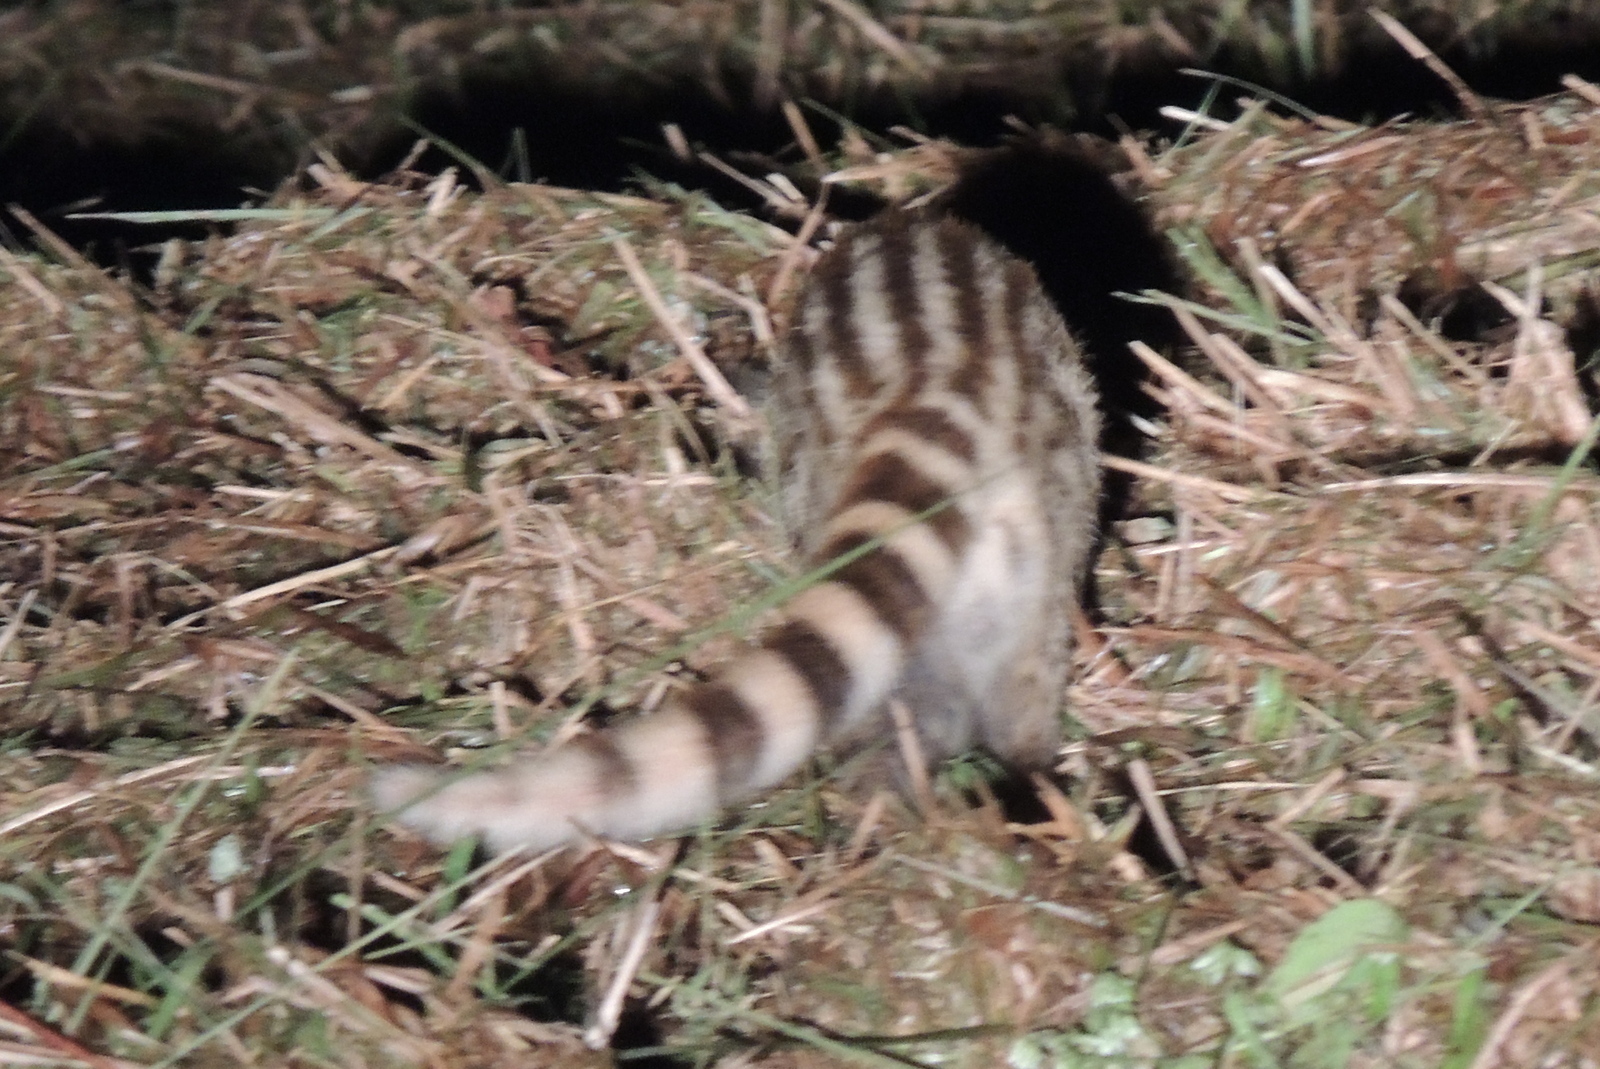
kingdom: Animalia
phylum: Chordata
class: Mammalia
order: Carnivora
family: Viverridae
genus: Viverricula
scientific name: Viverricula indica
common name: Small indian civet
